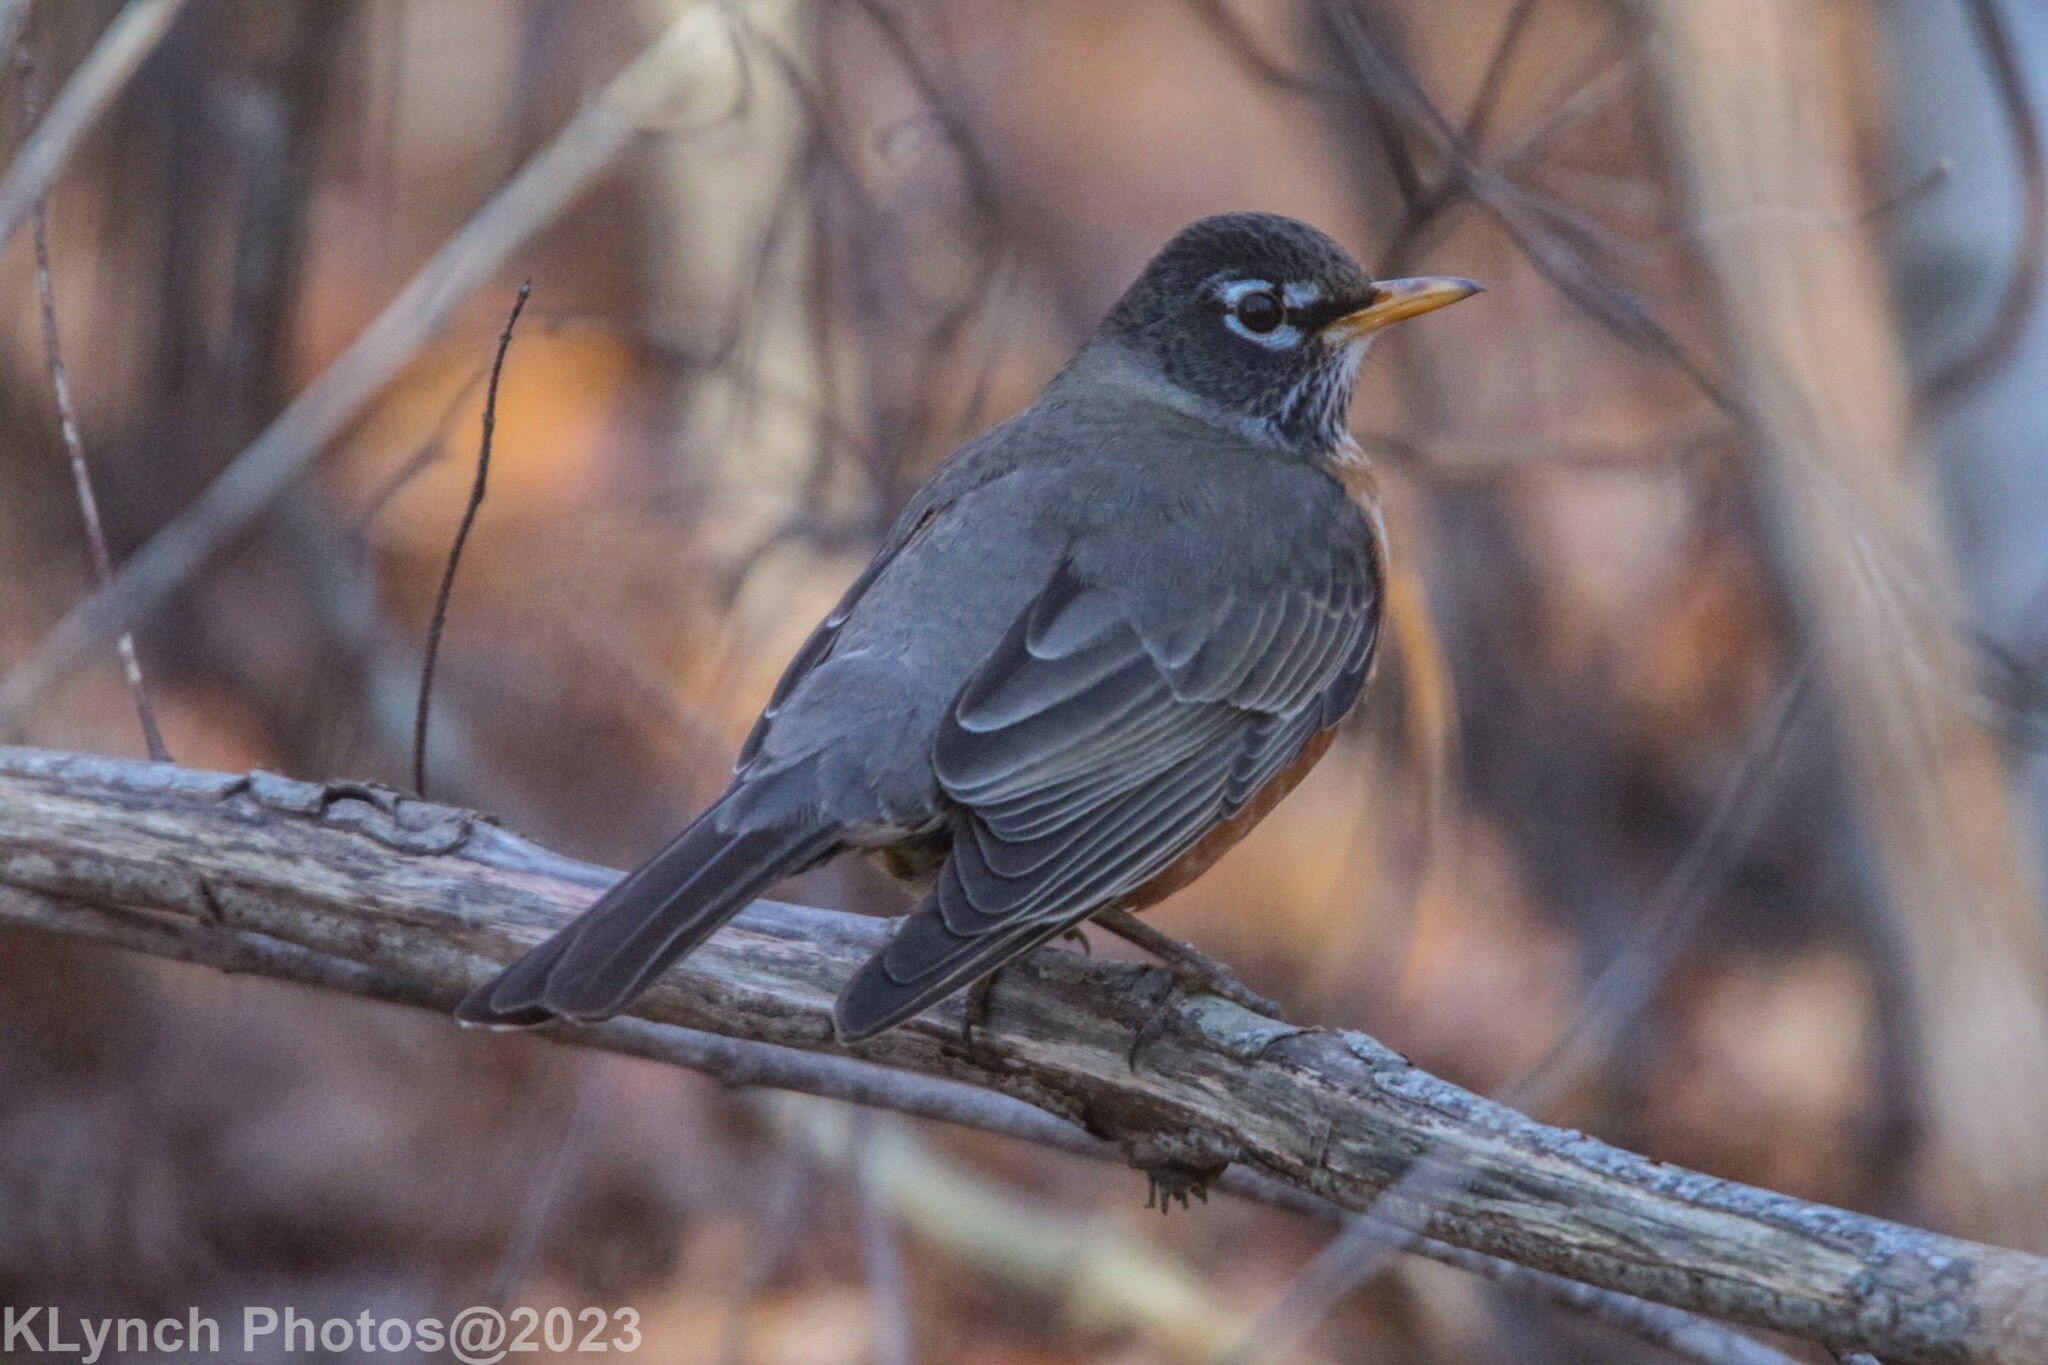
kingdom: Animalia
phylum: Chordata
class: Aves
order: Passeriformes
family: Turdidae
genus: Turdus
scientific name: Turdus migratorius
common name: American robin
